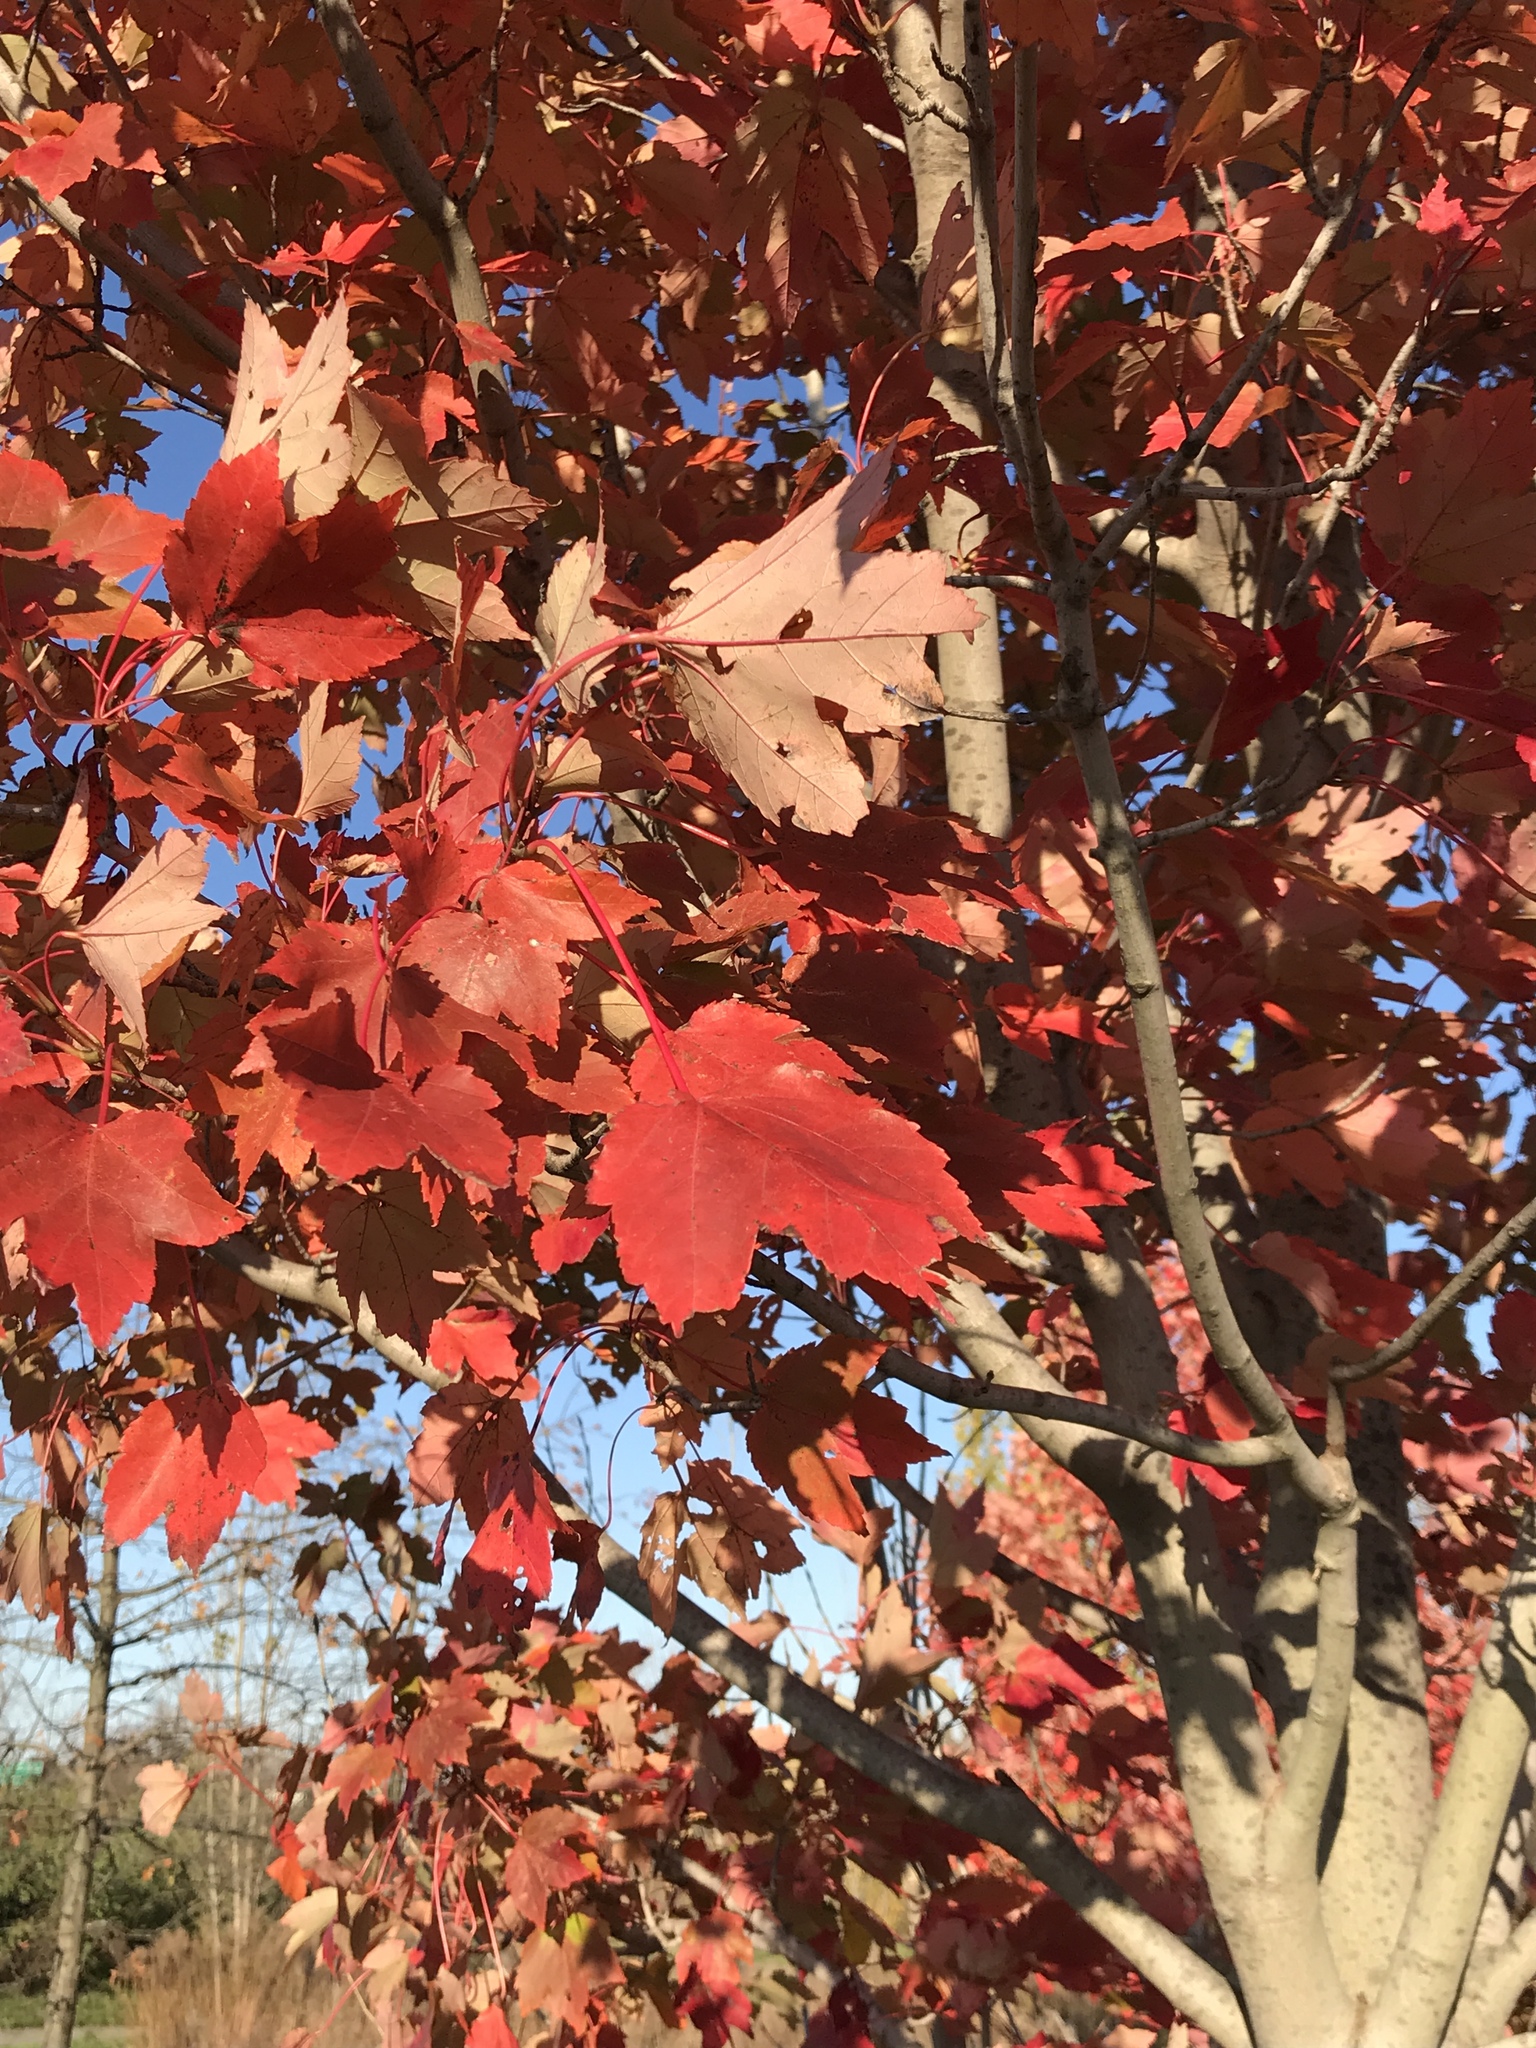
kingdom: Plantae
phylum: Tracheophyta
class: Magnoliopsida
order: Sapindales
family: Sapindaceae
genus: Acer
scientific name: Acer rubrum
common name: Red maple
